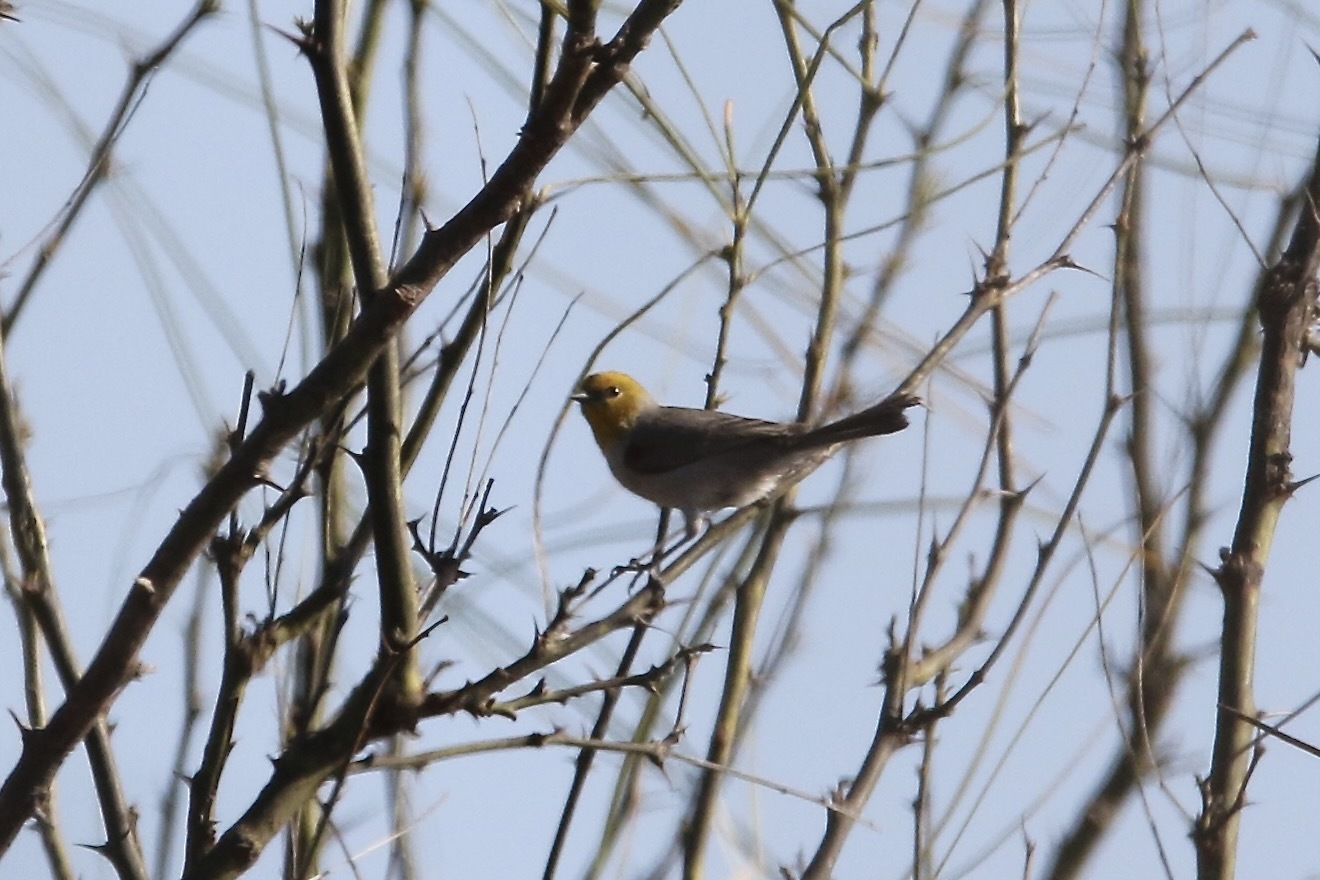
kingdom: Animalia
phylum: Chordata
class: Aves
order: Passeriformes
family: Remizidae
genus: Auriparus
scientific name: Auriparus flaviceps
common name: Verdin
